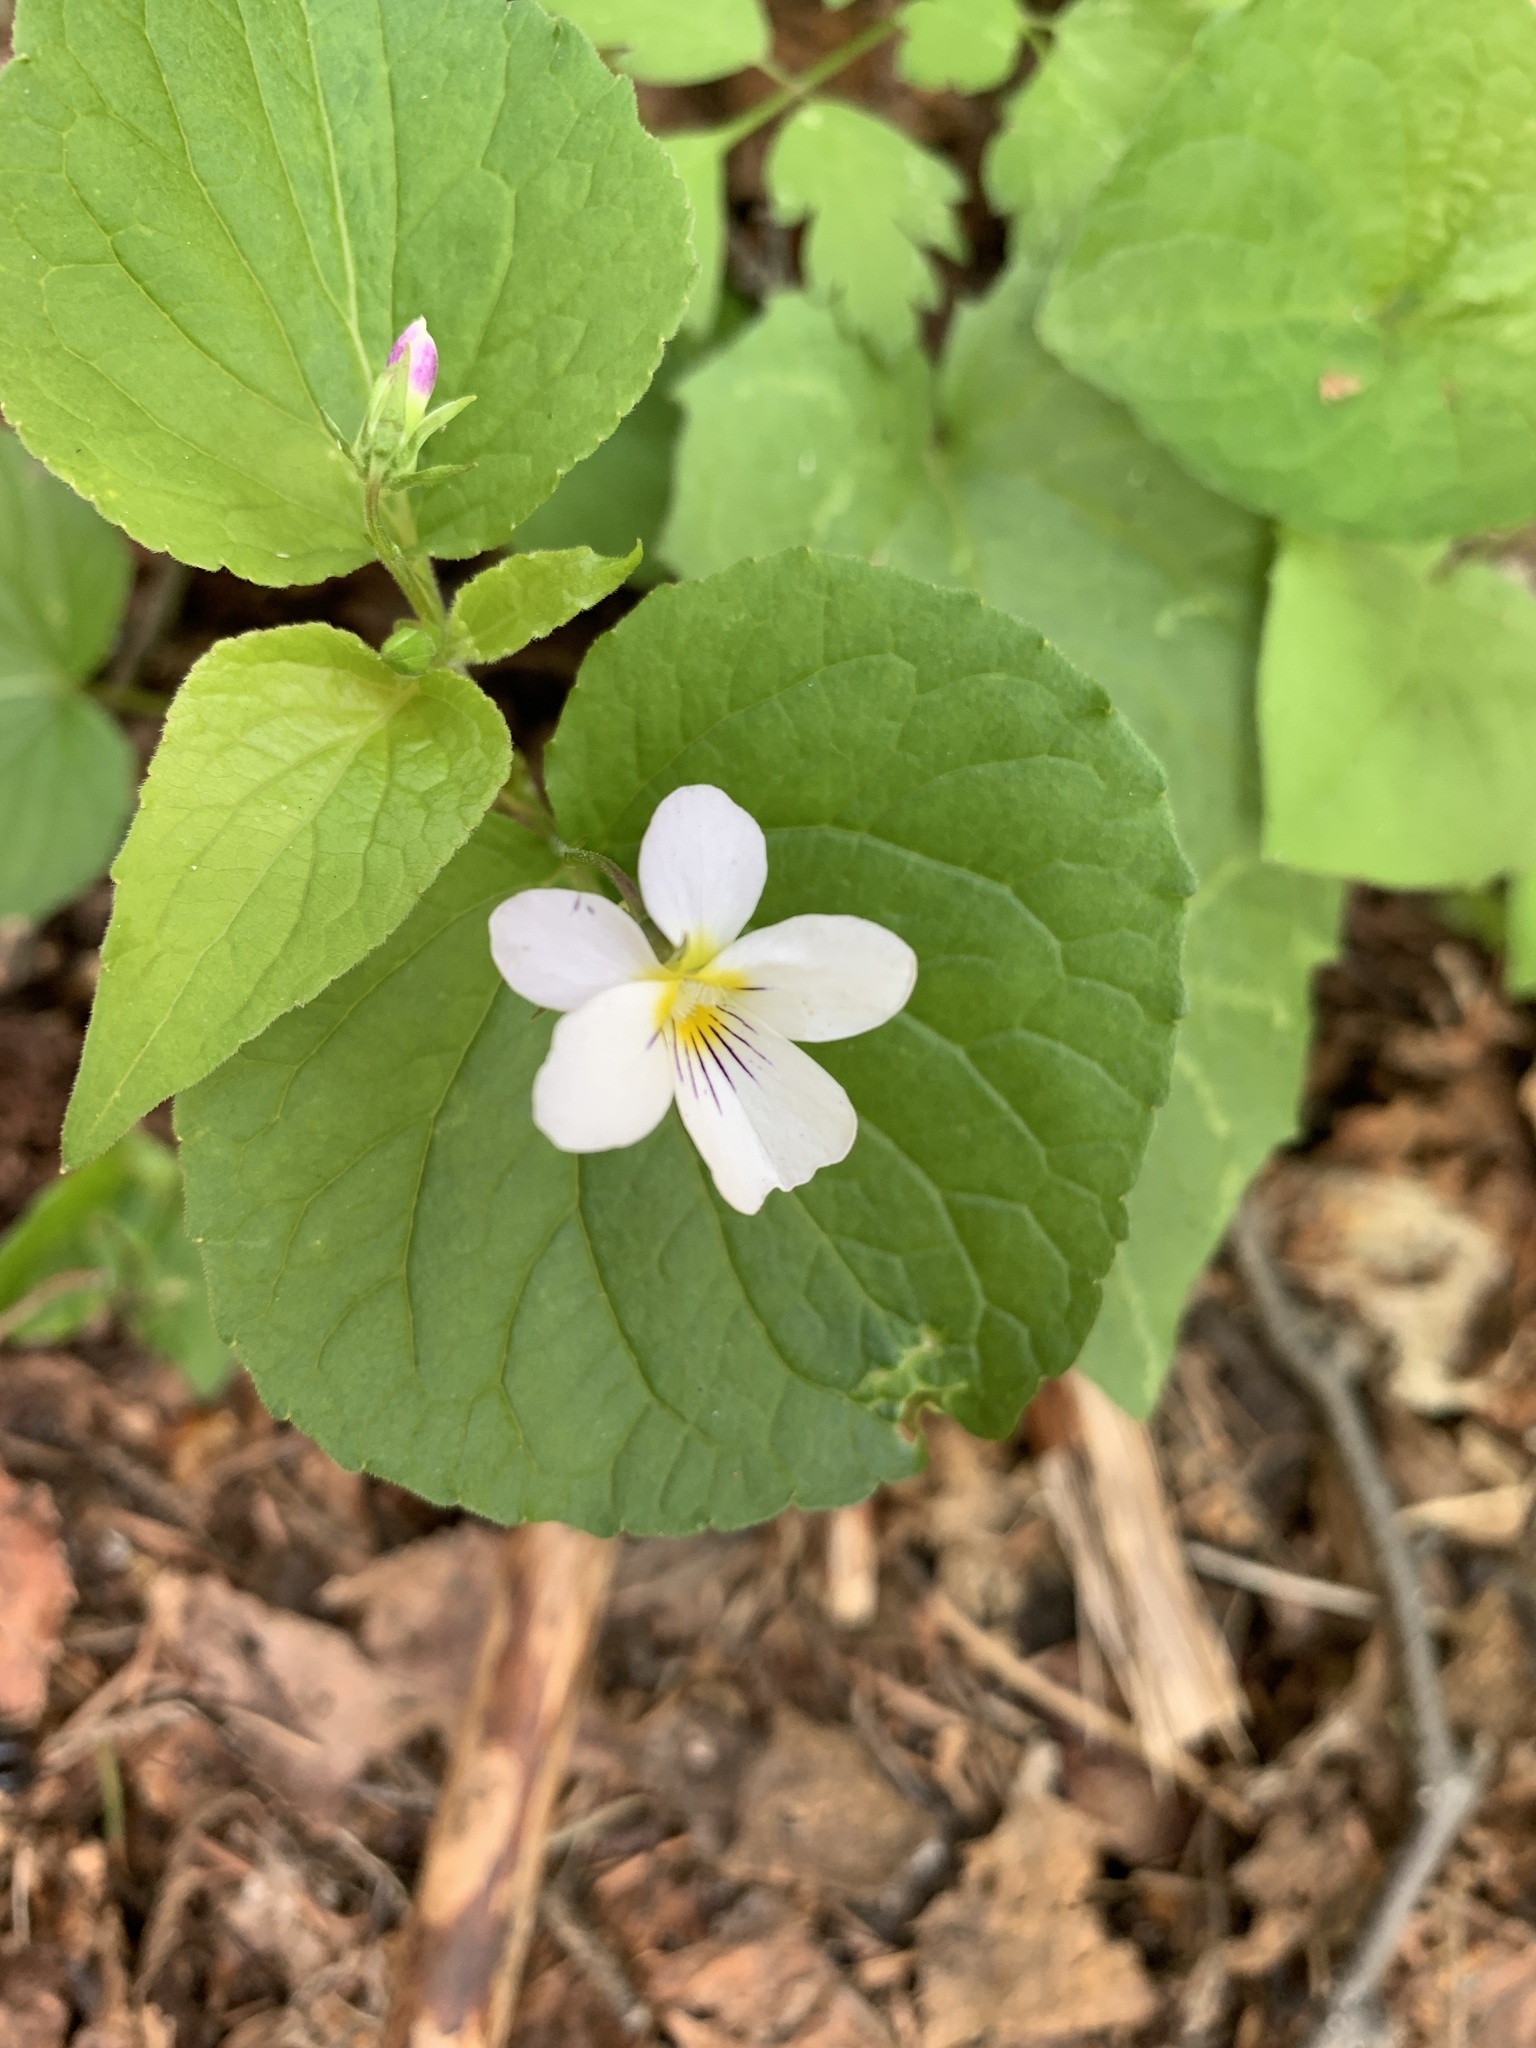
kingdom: Plantae
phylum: Tracheophyta
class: Magnoliopsida
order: Malpighiales
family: Violaceae
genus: Viola
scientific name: Viola canadensis
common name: Canada violet
